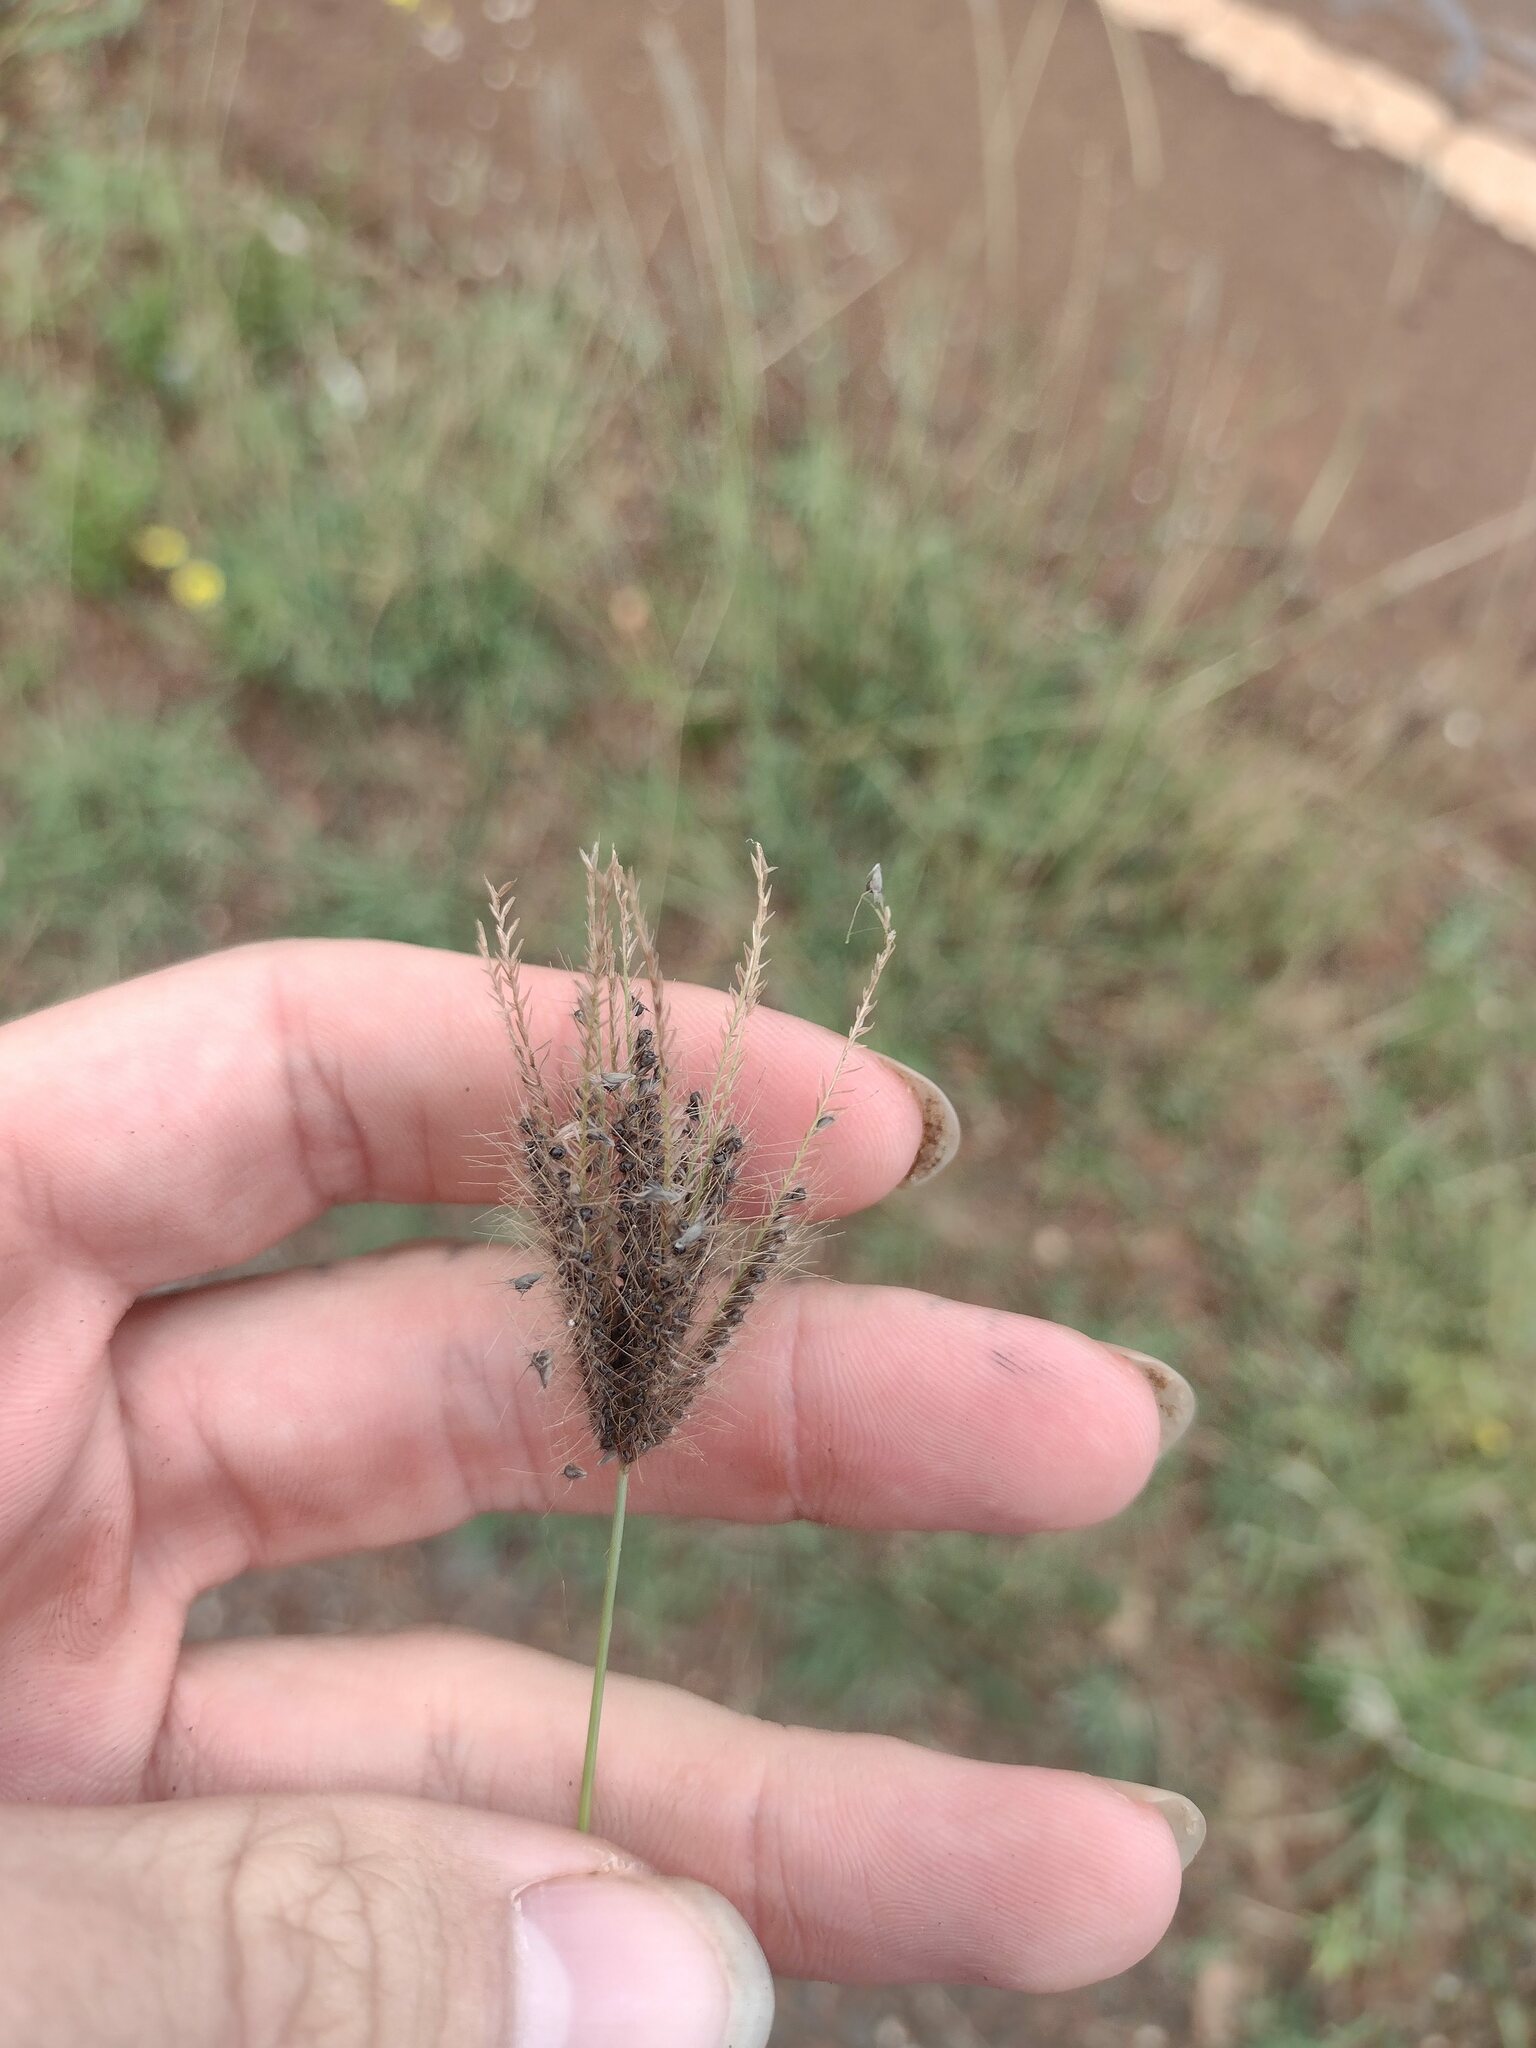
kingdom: Plantae
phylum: Tracheophyta
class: Liliopsida
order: Poales
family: Poaceae
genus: Chloris
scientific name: Chloris barbata
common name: Swollen fingergrass
